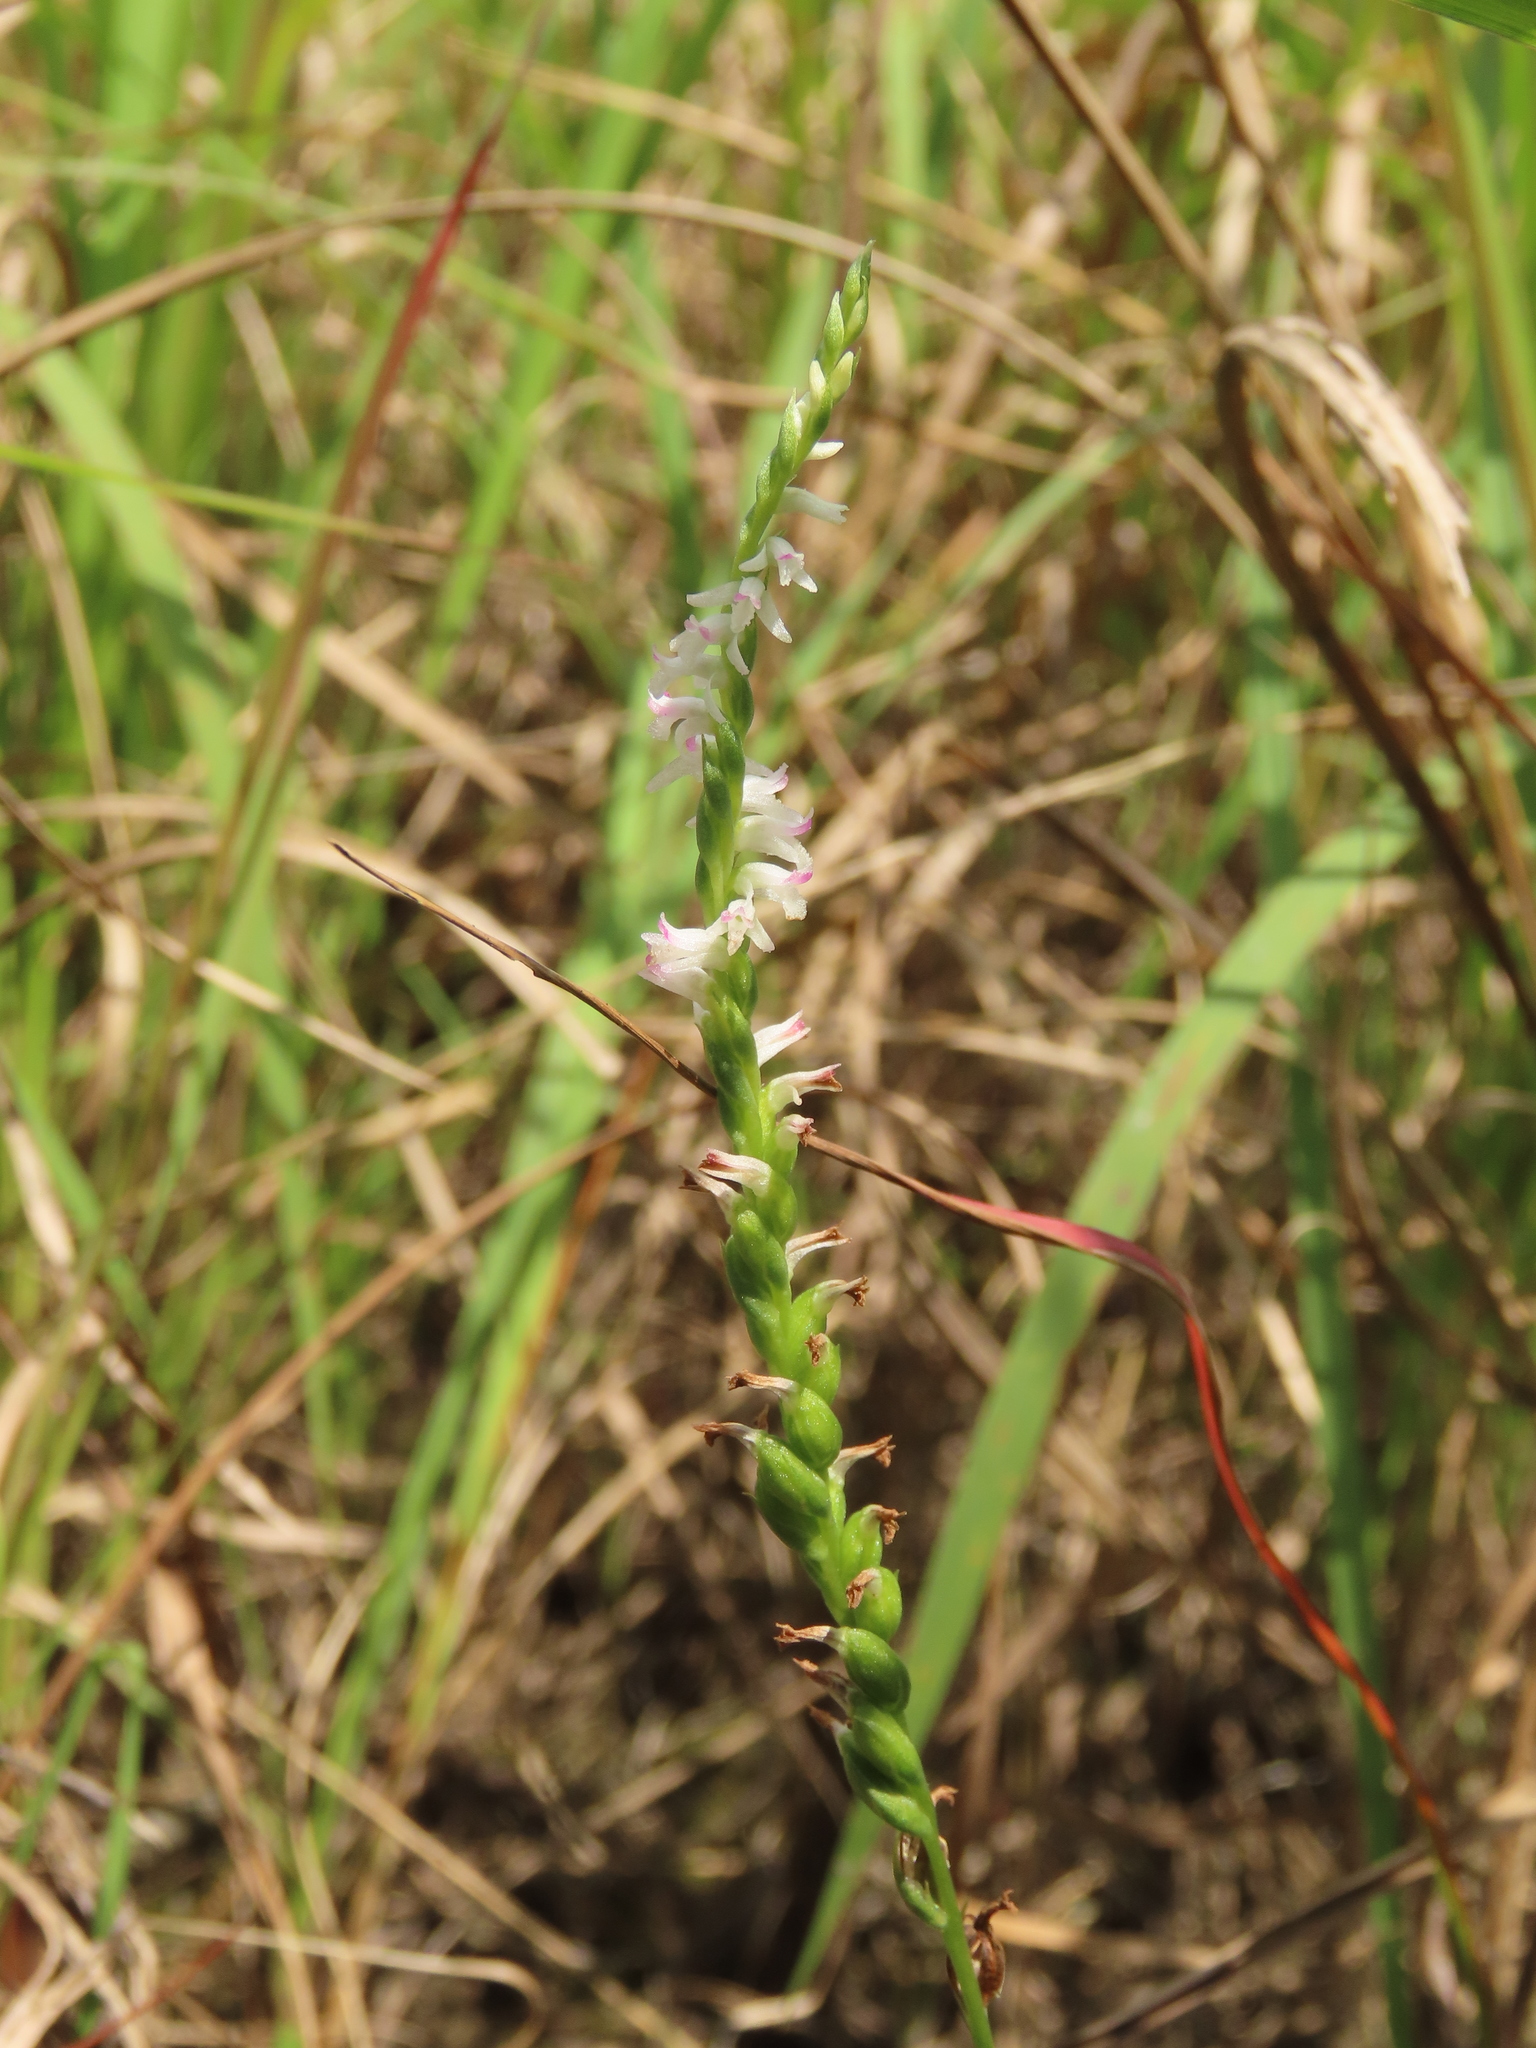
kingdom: Plantae
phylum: Tracheophyta
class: Liliopsida
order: Asparagales
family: Orchidaceae
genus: Spiranthes
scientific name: Spiranthes sinensis
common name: Chinese spiranthes
